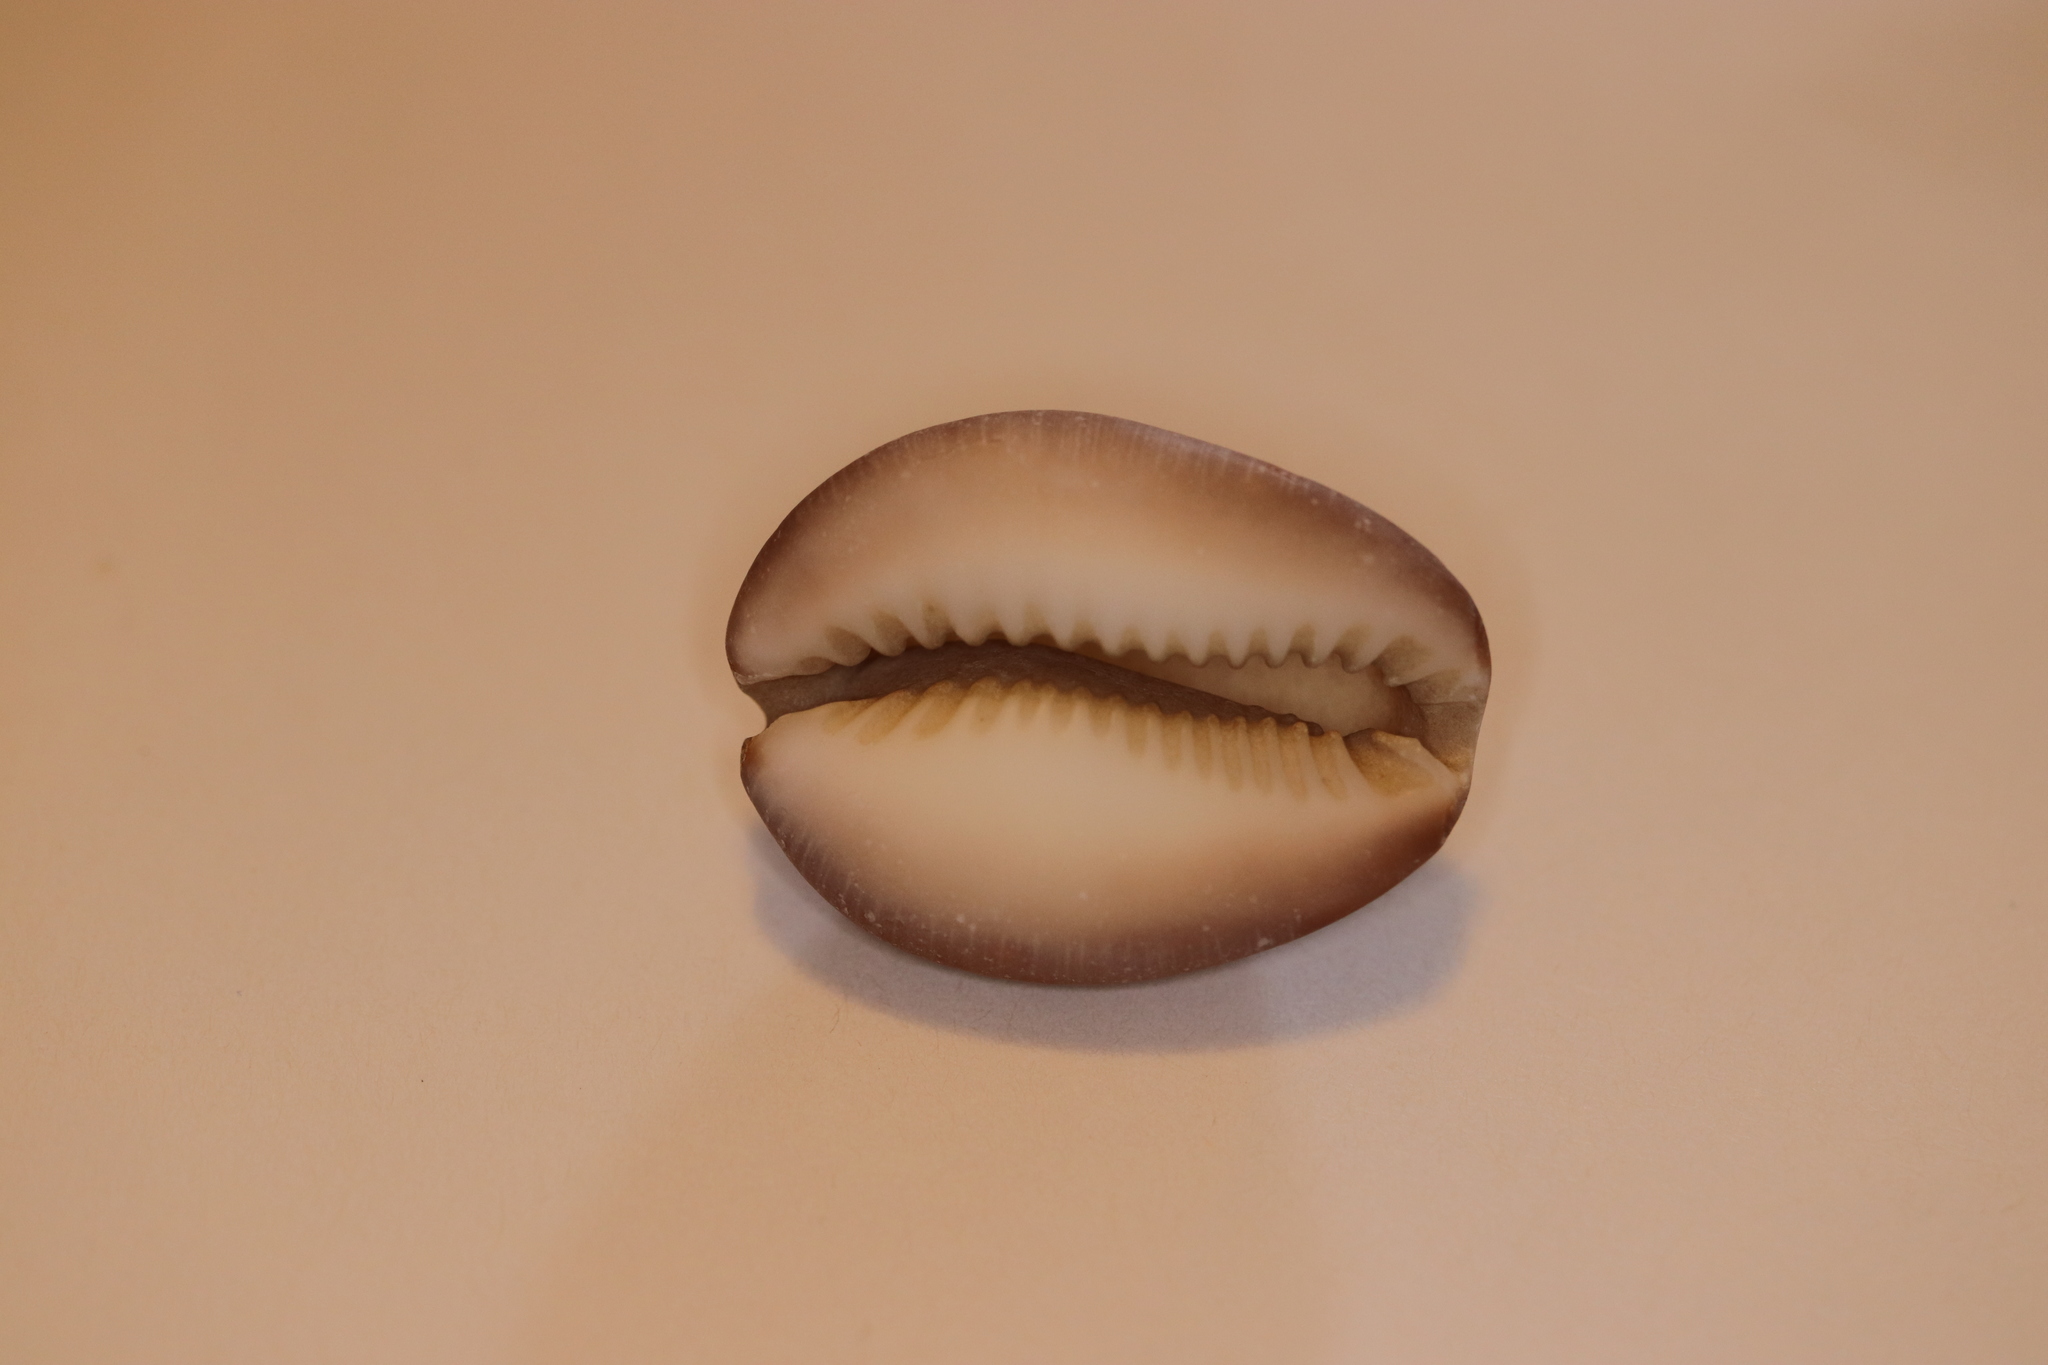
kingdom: Animalia
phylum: Mollusca
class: Gastropoda
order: Littorinimorpha
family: Cypraeidae
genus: Monetaria
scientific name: Monetaria caputserpentis
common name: Serpent's head cowrie
